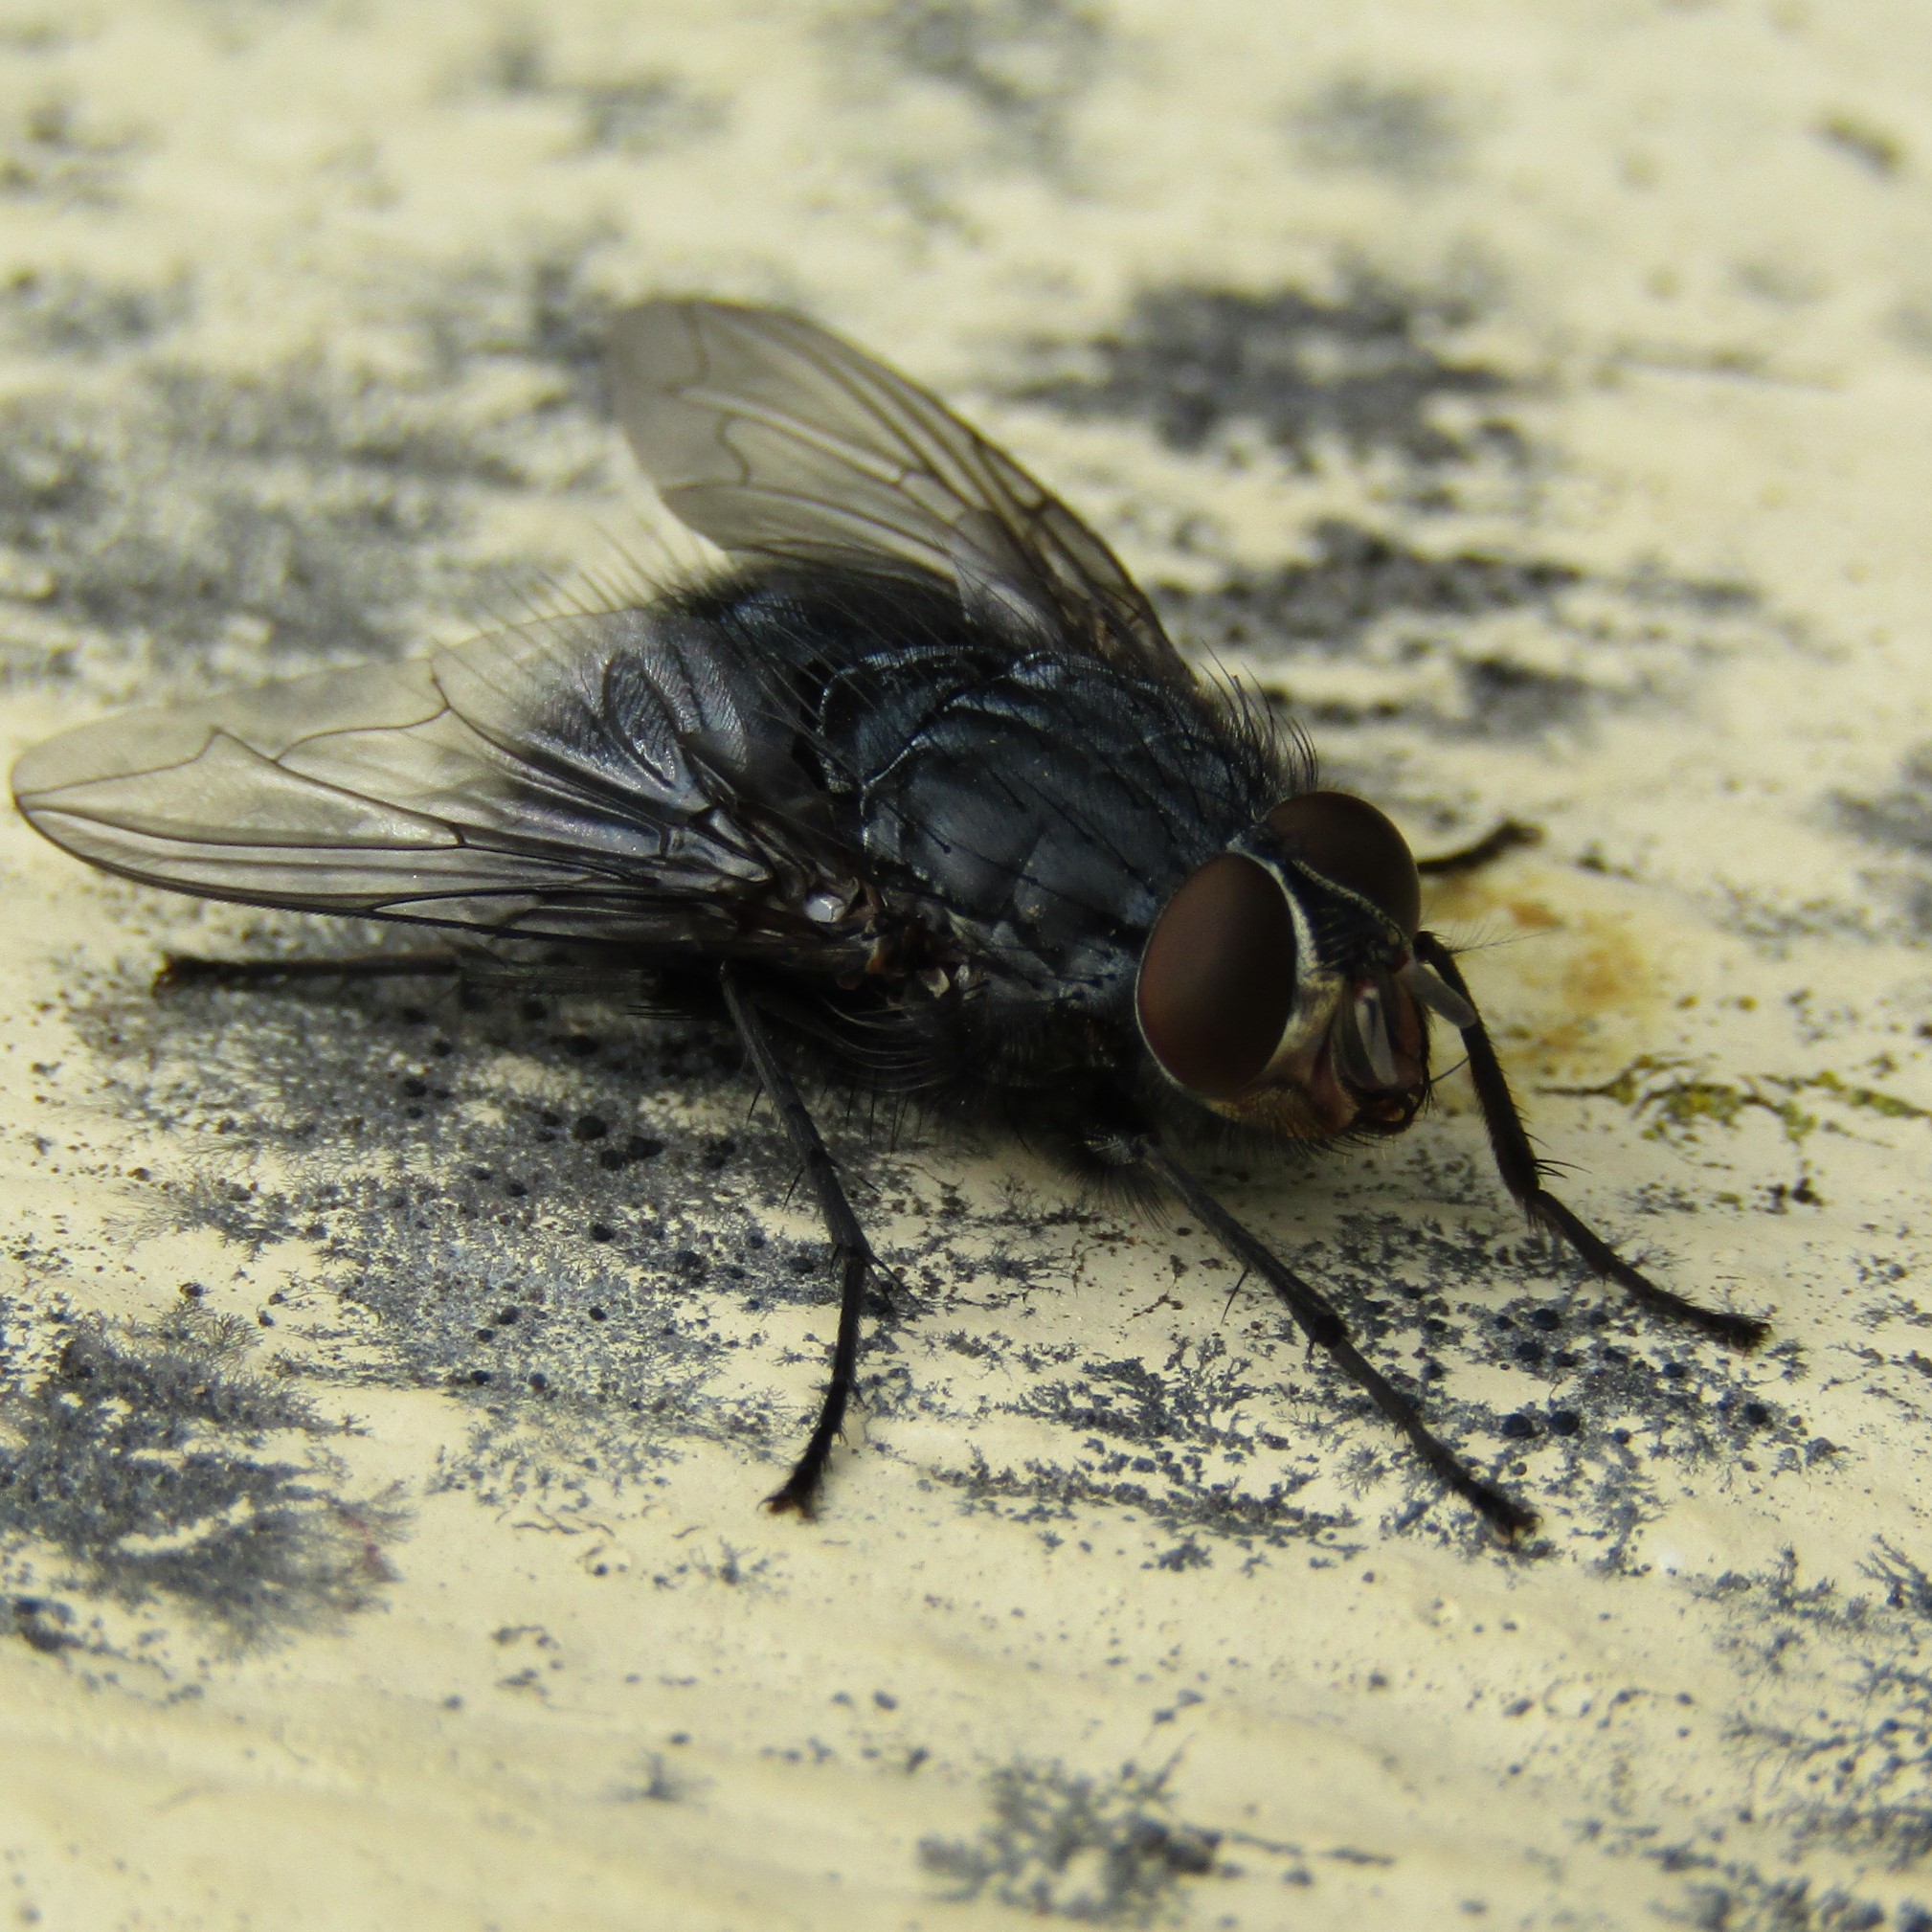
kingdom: Animalia
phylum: Arthropoda
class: Insecta
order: Diptera
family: Calliphoridae
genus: Calliphora
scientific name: Calliphora vicina
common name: Common blow flie
